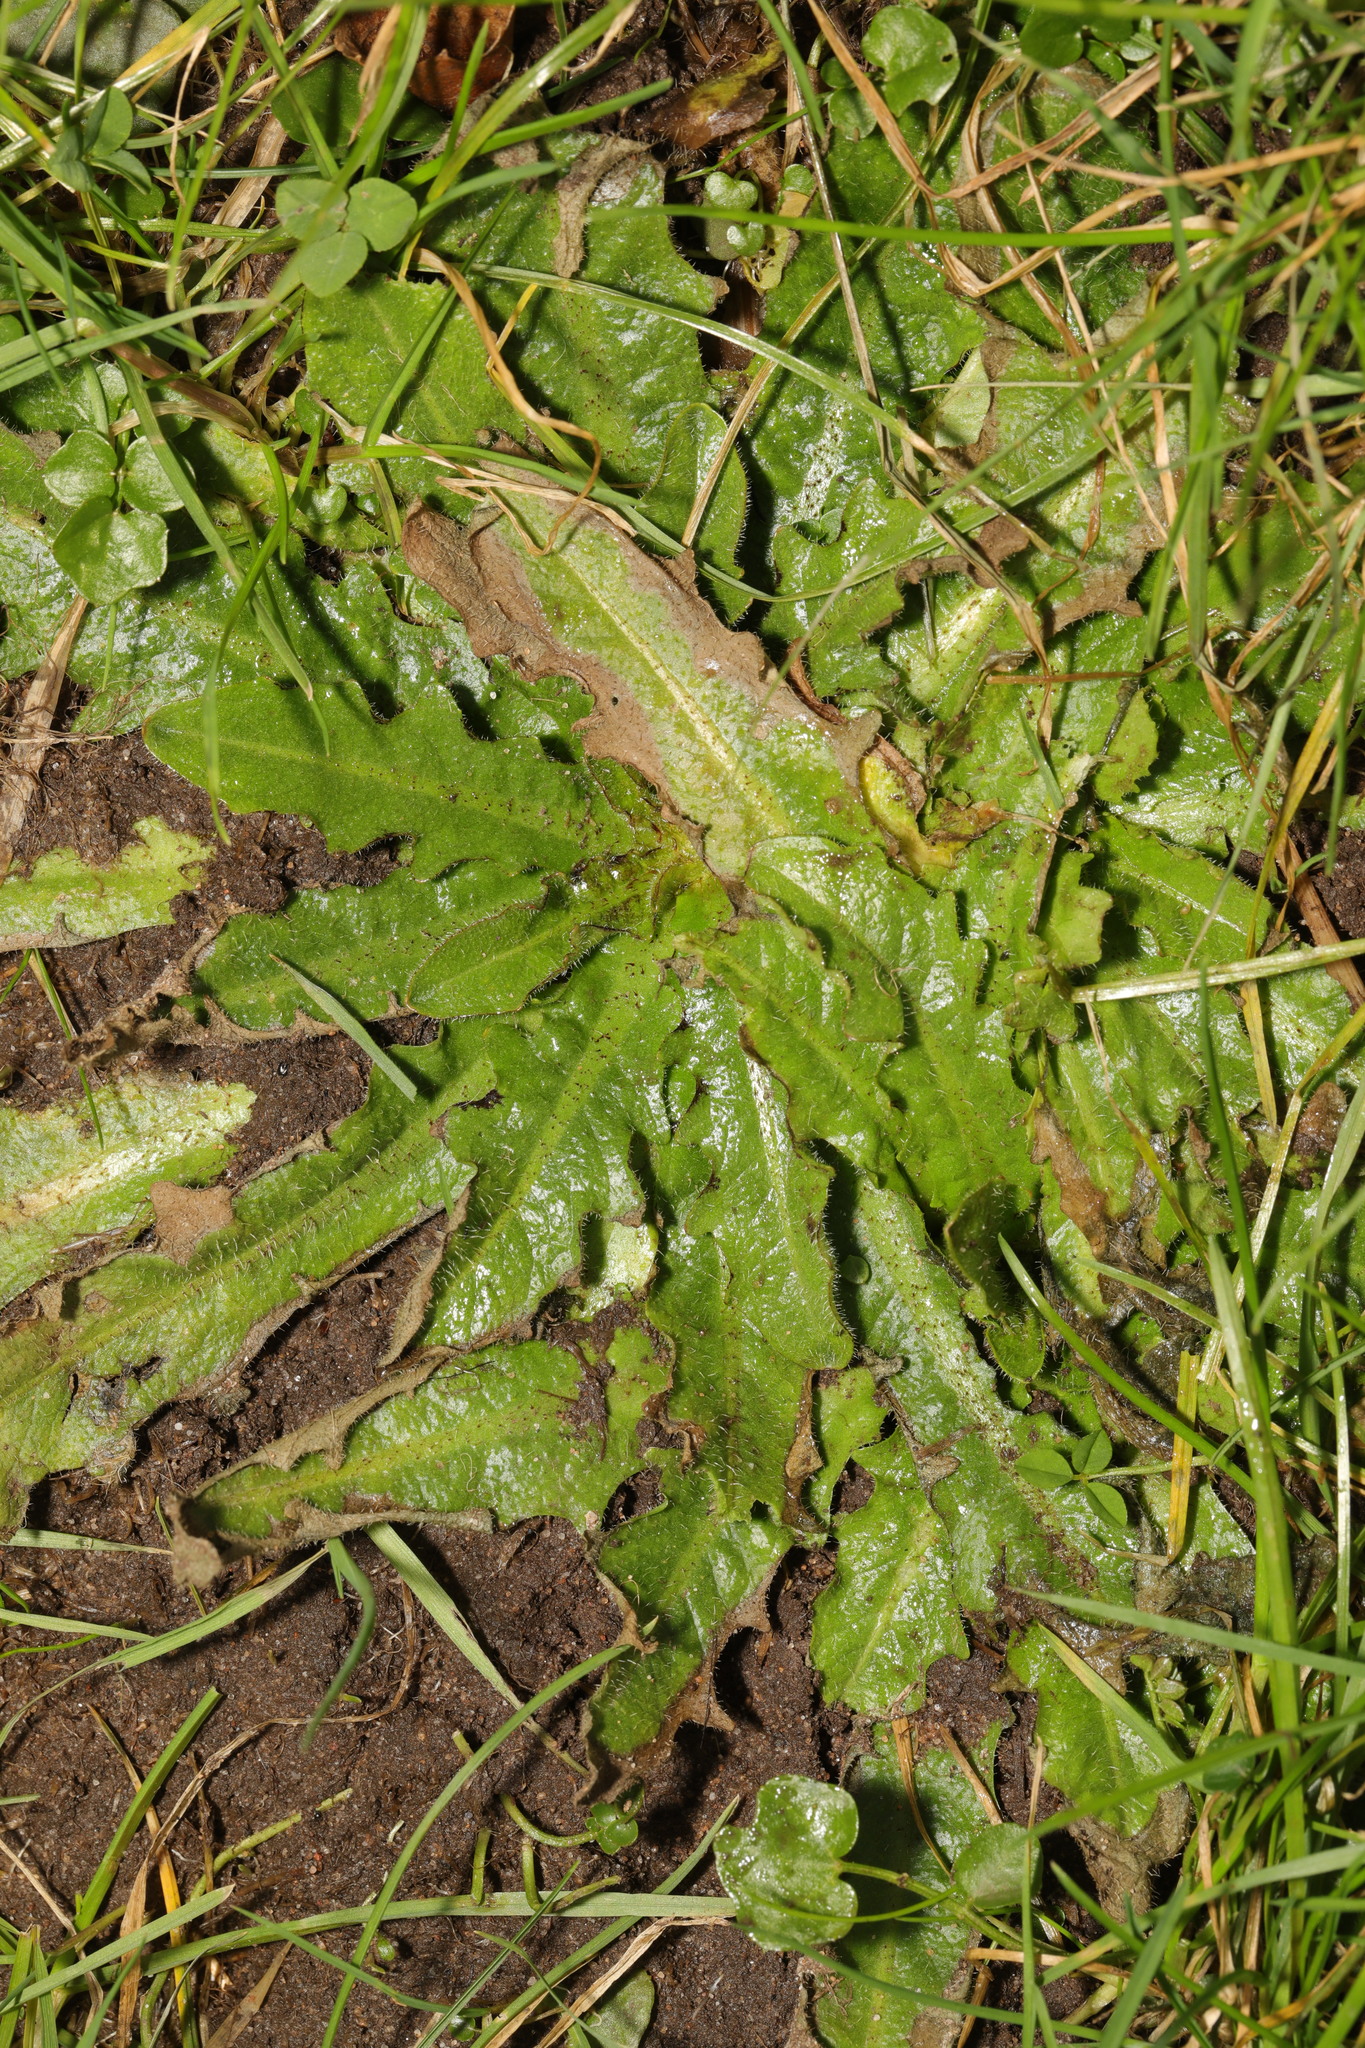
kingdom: Plantae
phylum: Tracheophyta
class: Magnoliopsida
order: Asterales
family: Asteraceae
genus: Hypochaeris
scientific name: Hypochaeris radicata
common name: Flatweed
